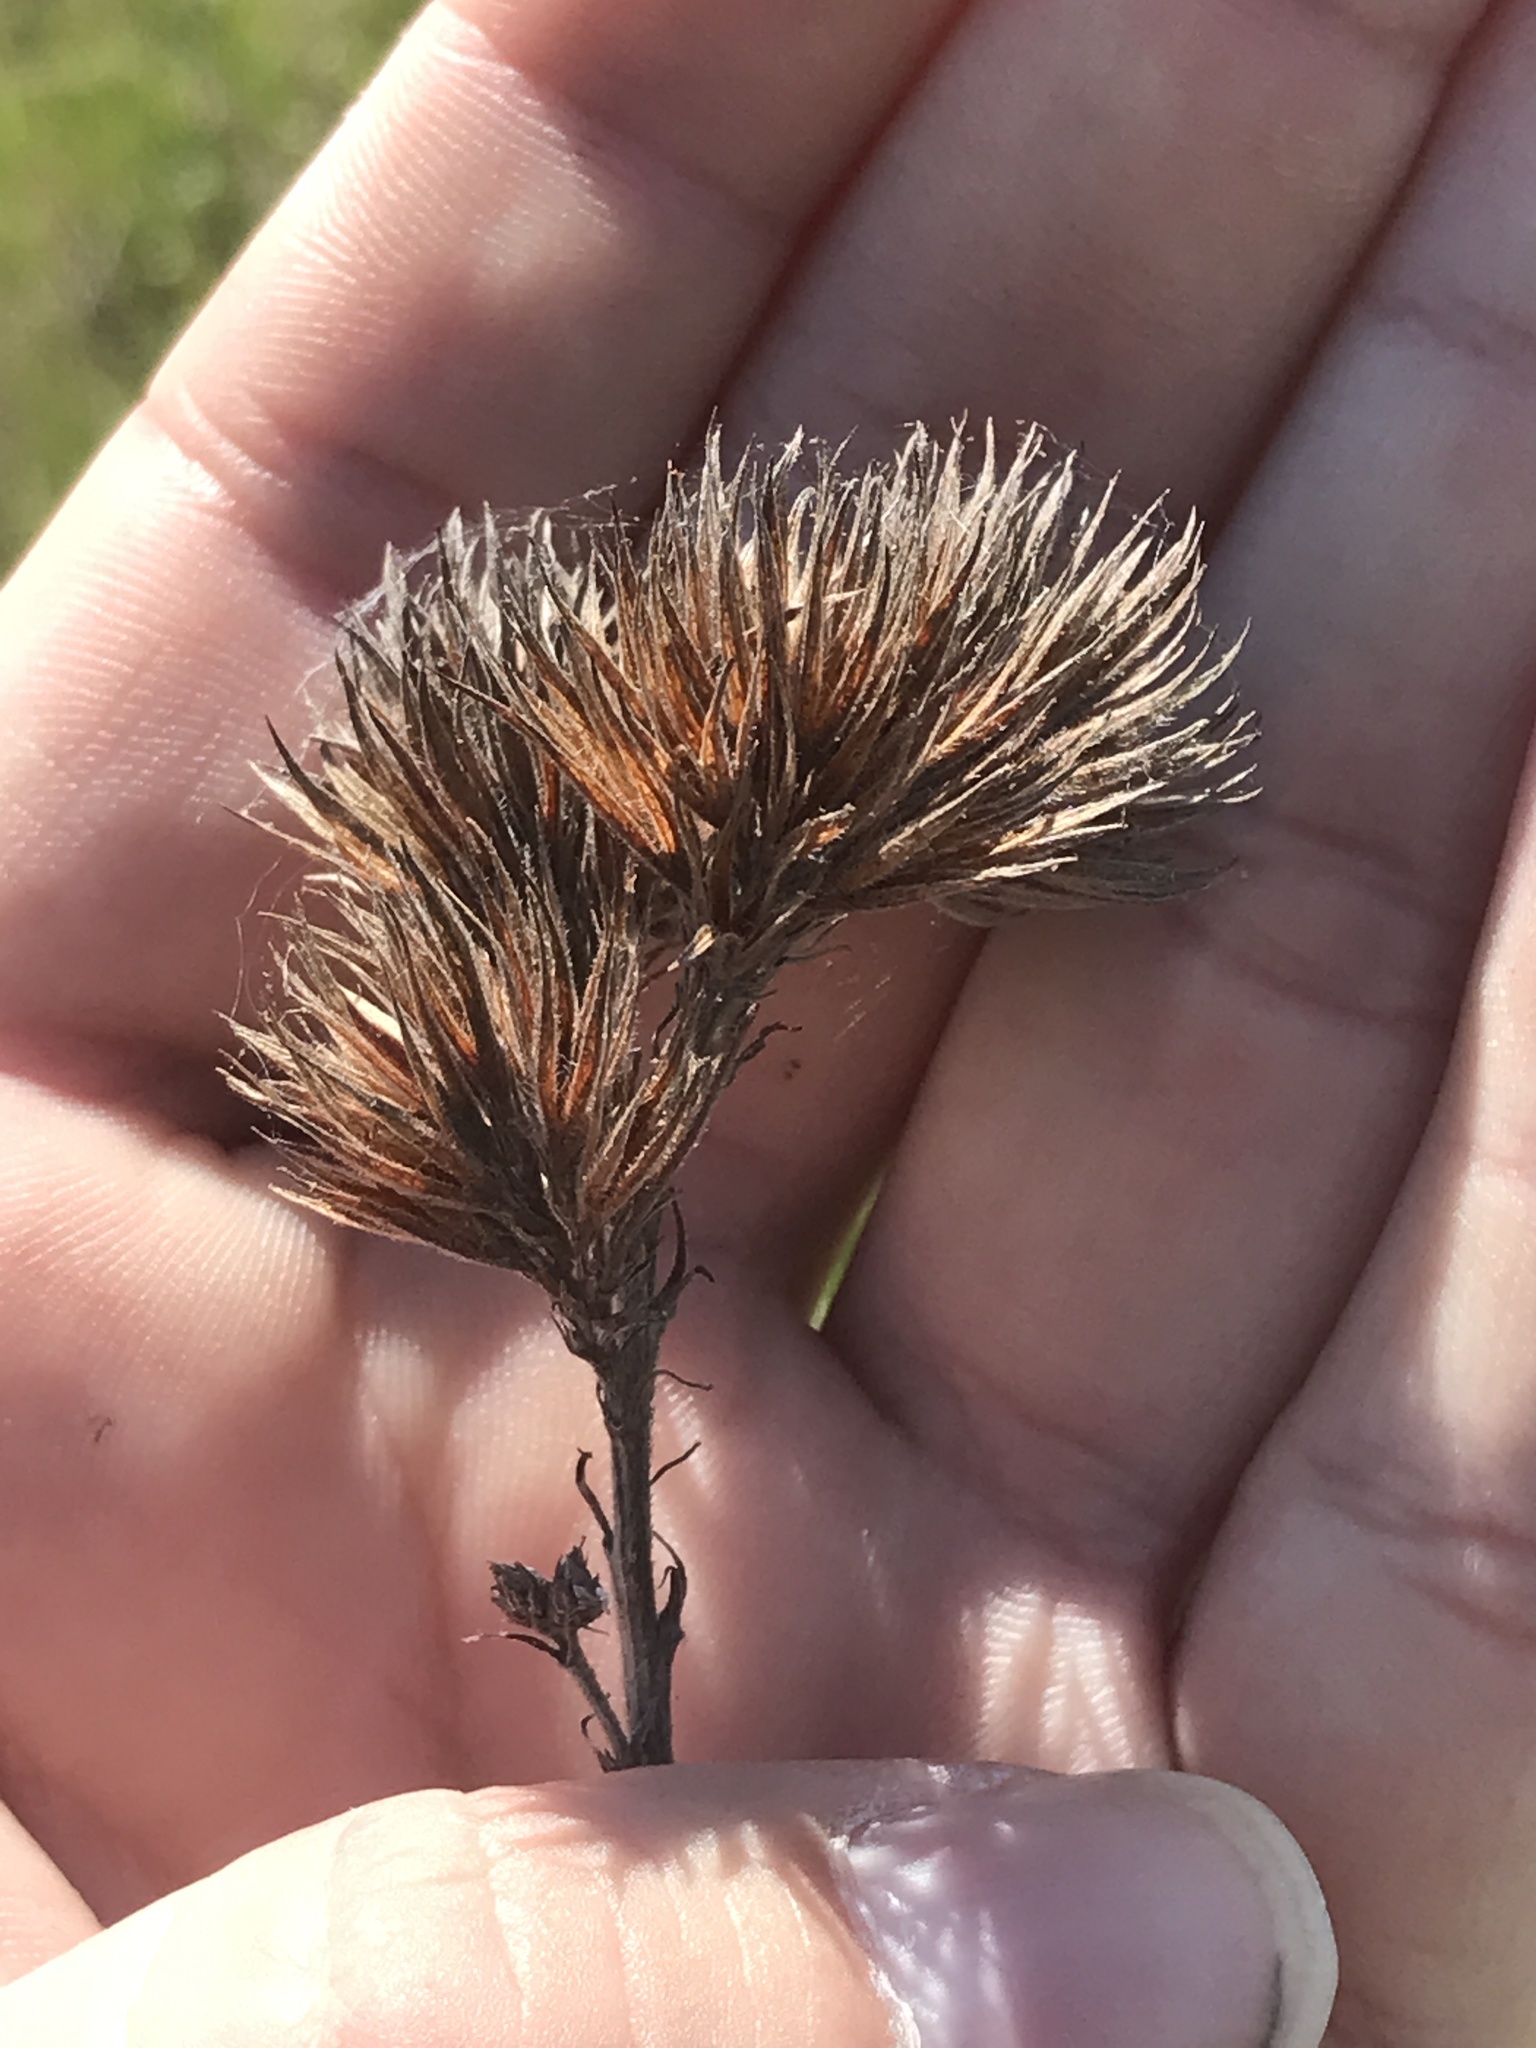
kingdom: Plantae
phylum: Tracheophyta
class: Magnoliopsida
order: Fabales
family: Fabaceae
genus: Lespedeza
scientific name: Lespedeza capitata
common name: Dusty clover
